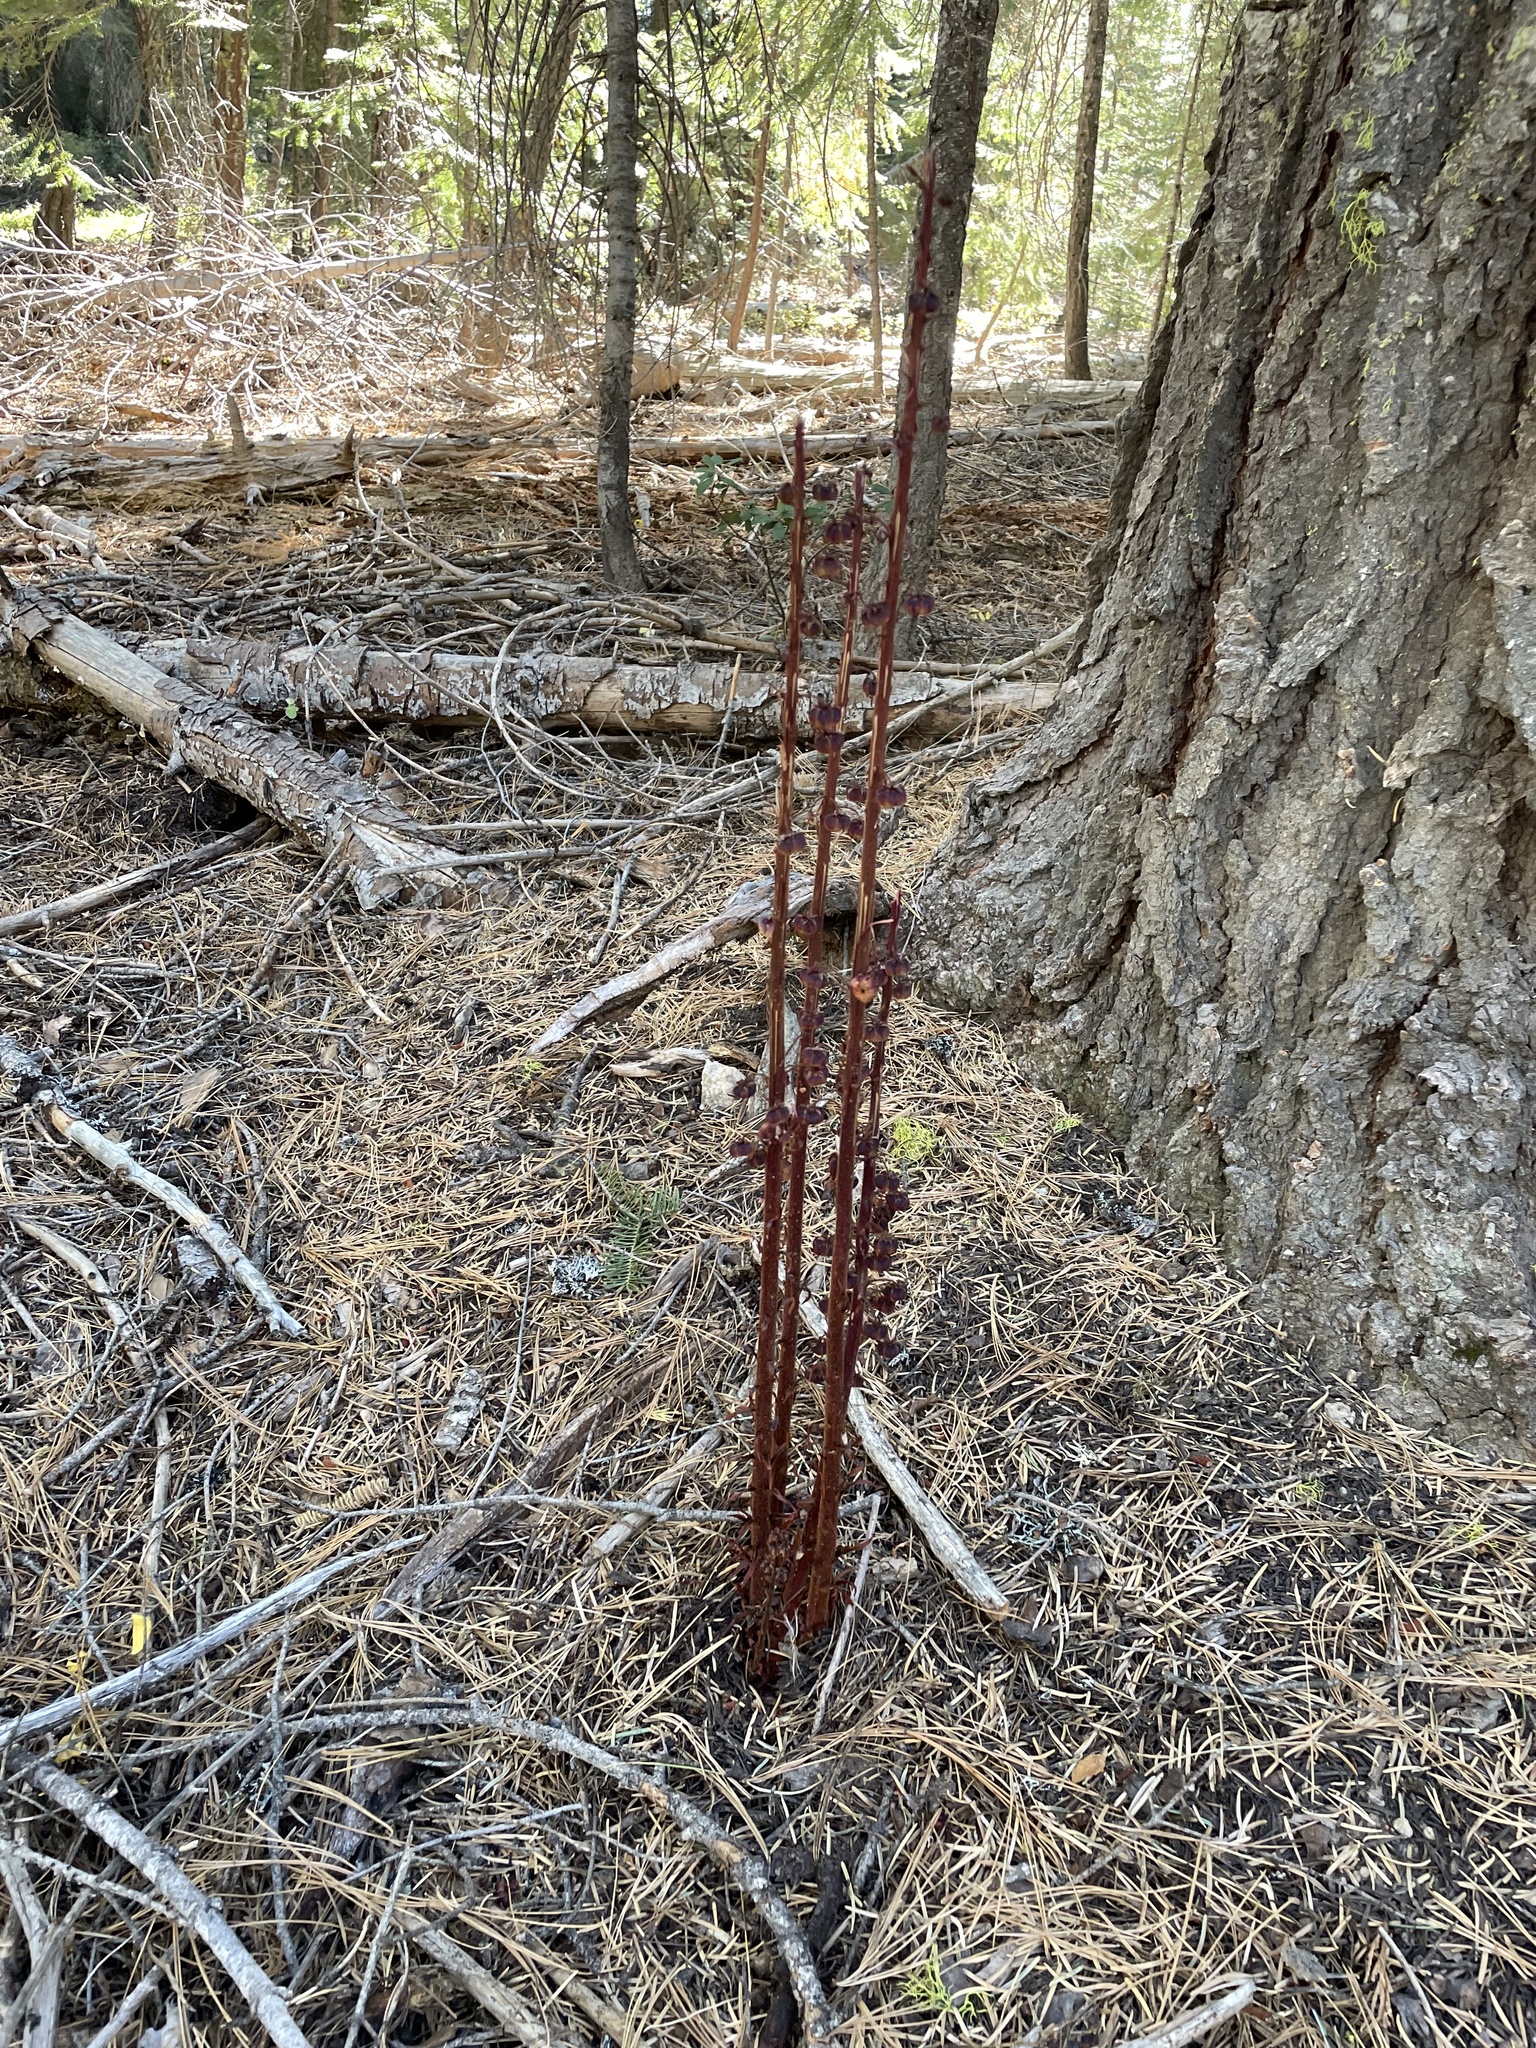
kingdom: Plantae
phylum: Tracheophyta
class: Magnoliopsida
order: Ericales
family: Ericaceae
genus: Pterospora
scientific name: Pterospora andromedea
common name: Giant bird's-nest
